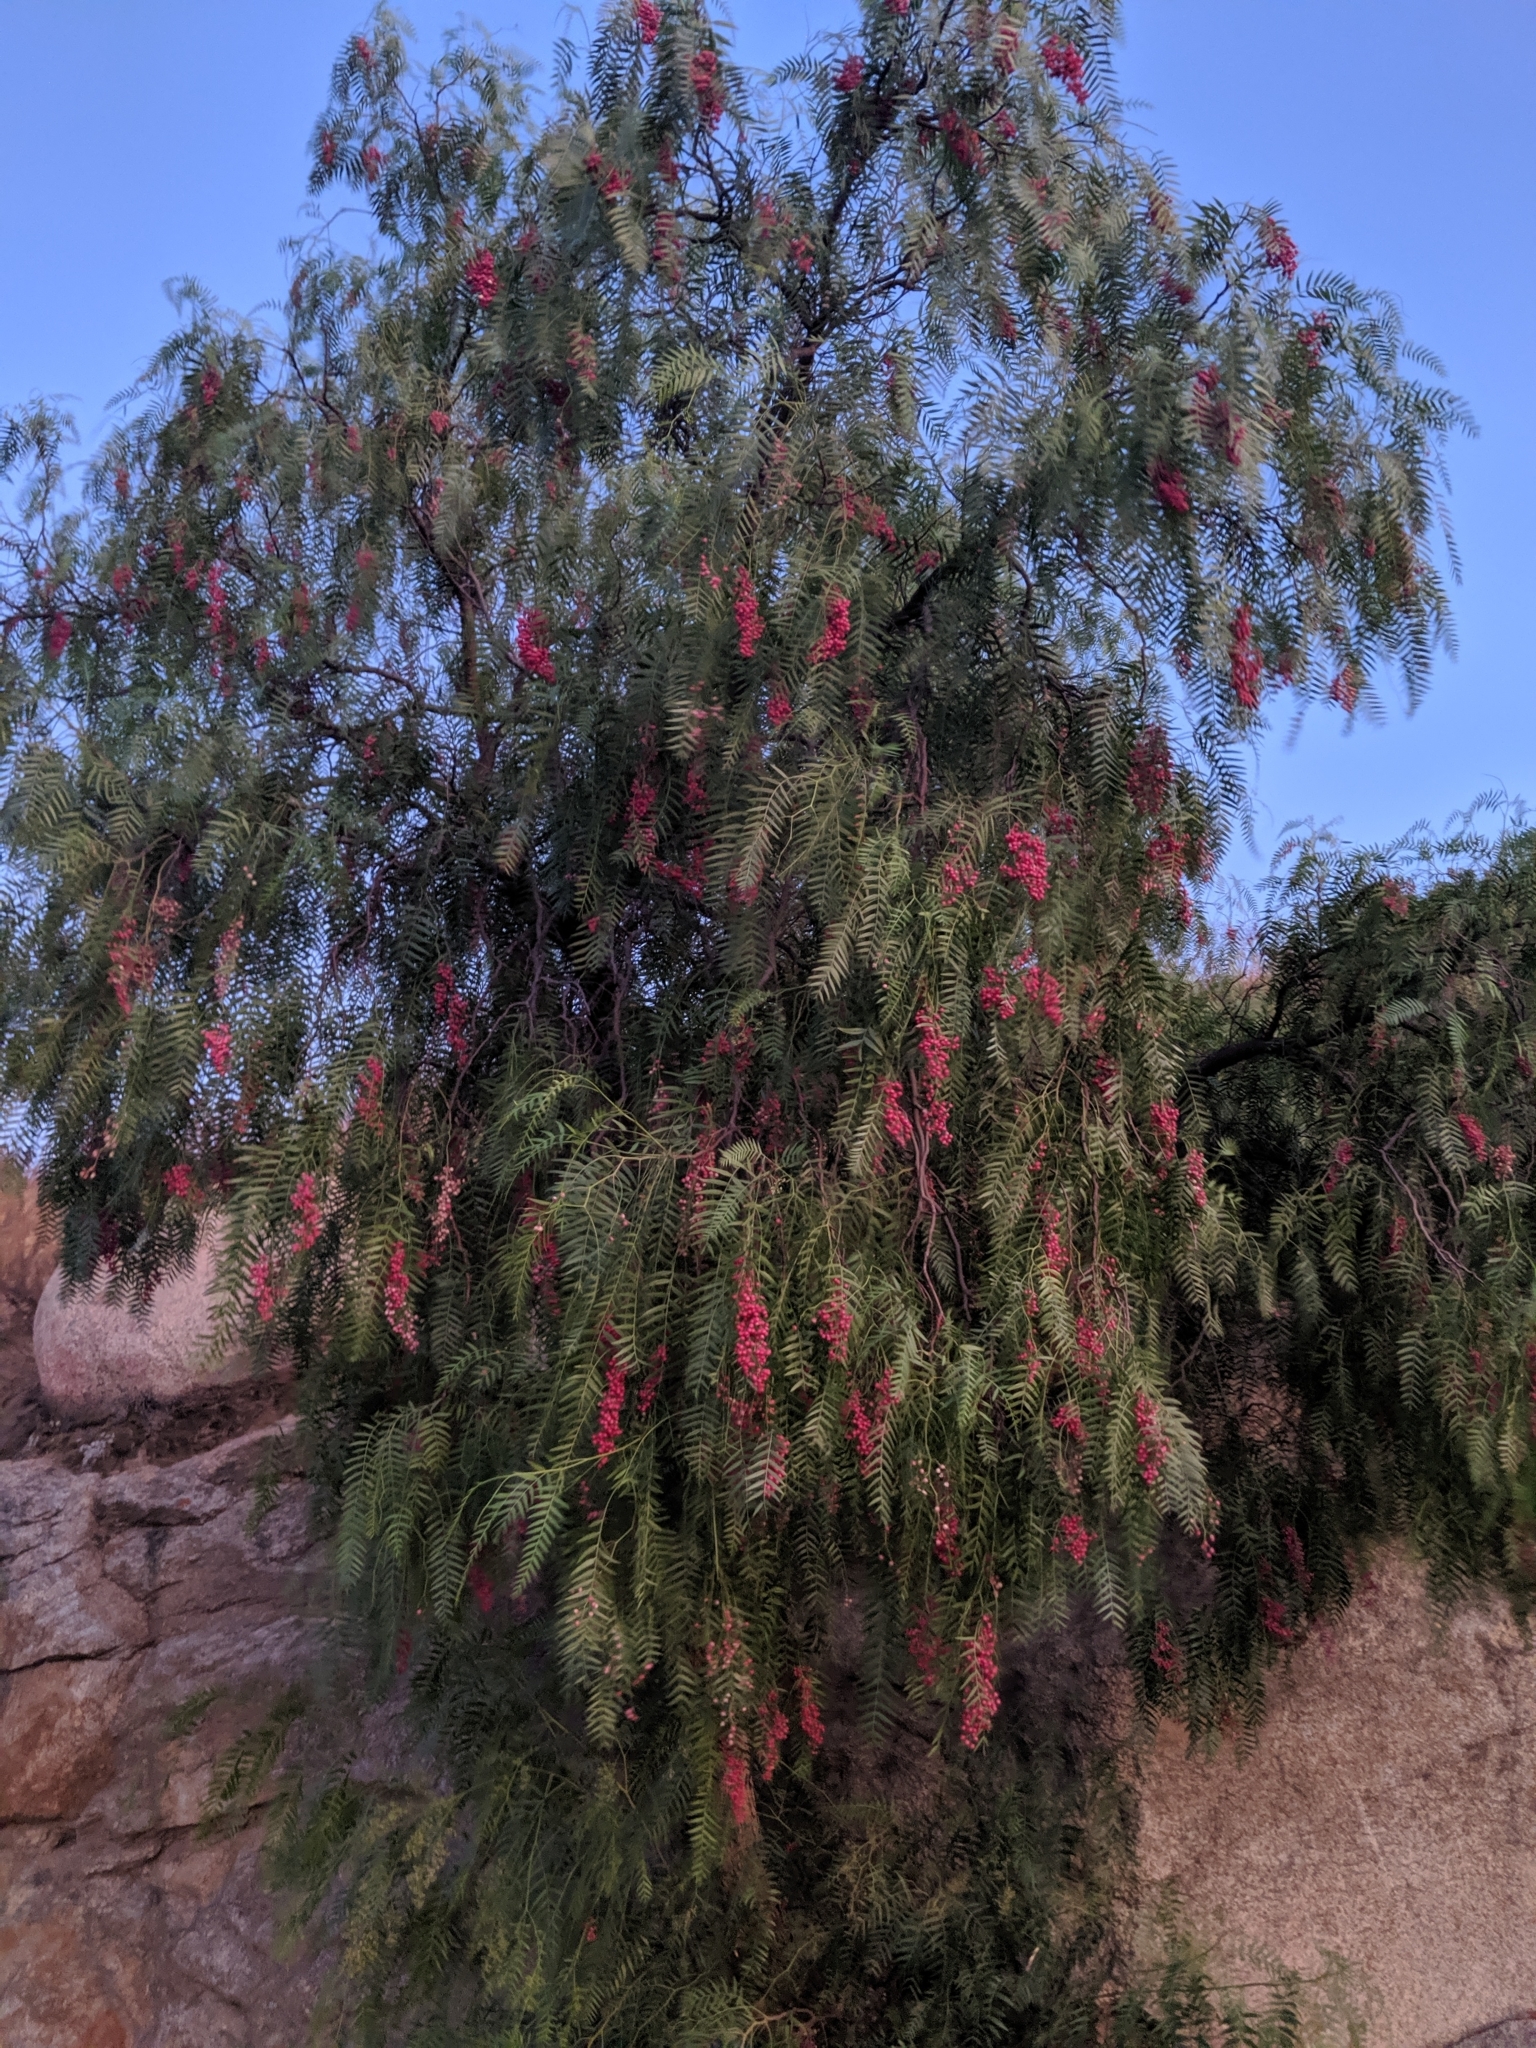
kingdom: Plantae
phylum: Tracheophyta
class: Magnoliopsida
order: Sapindales
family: Anacardiaceae
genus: Schinus
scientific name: Schinus molle
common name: Peruvian peppertree
